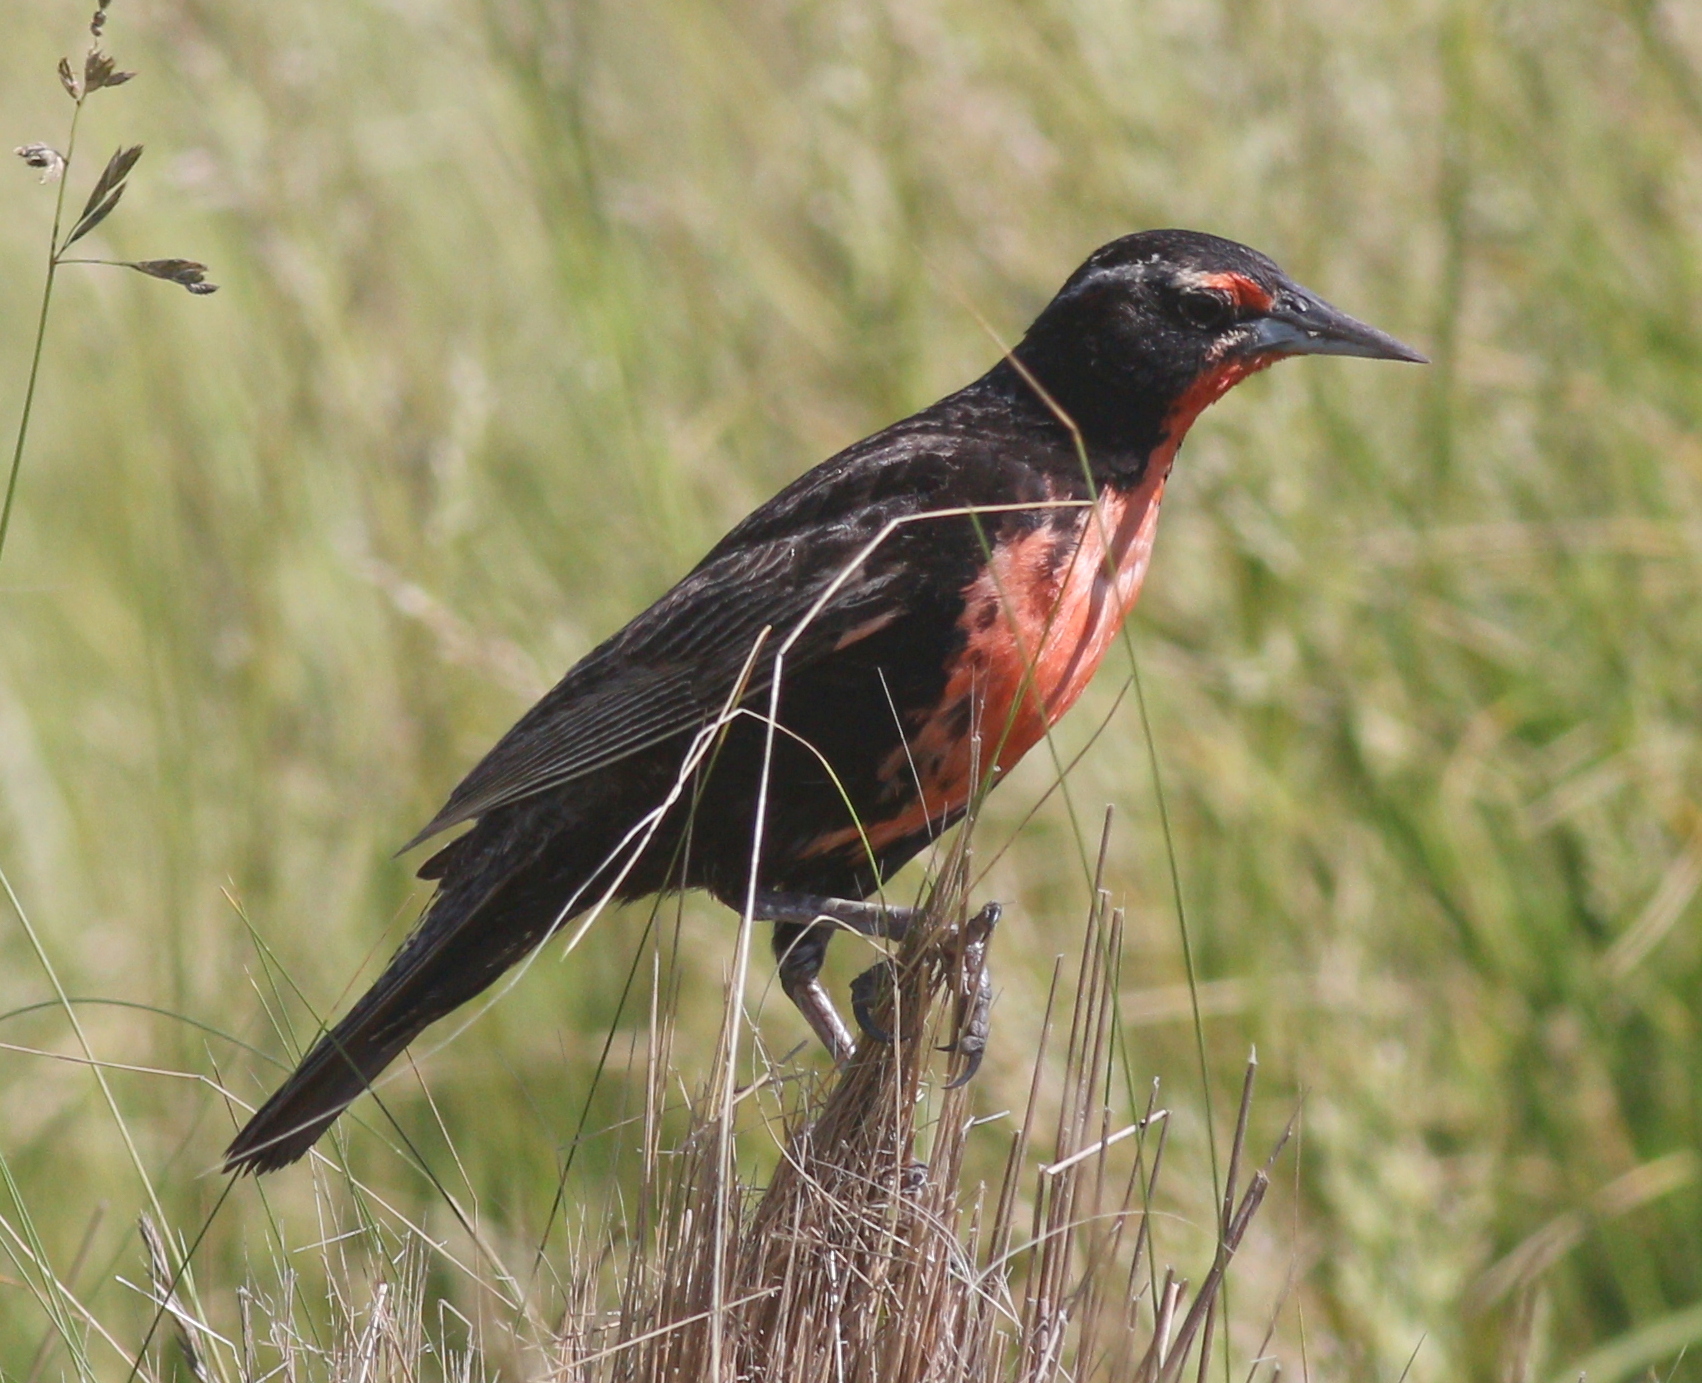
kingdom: Animalia
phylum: Chordata
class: Aves
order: Passeriformes
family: Icteridae
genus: Sturnella
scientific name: Sturnella loyca
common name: Long-tailed meadowlark
